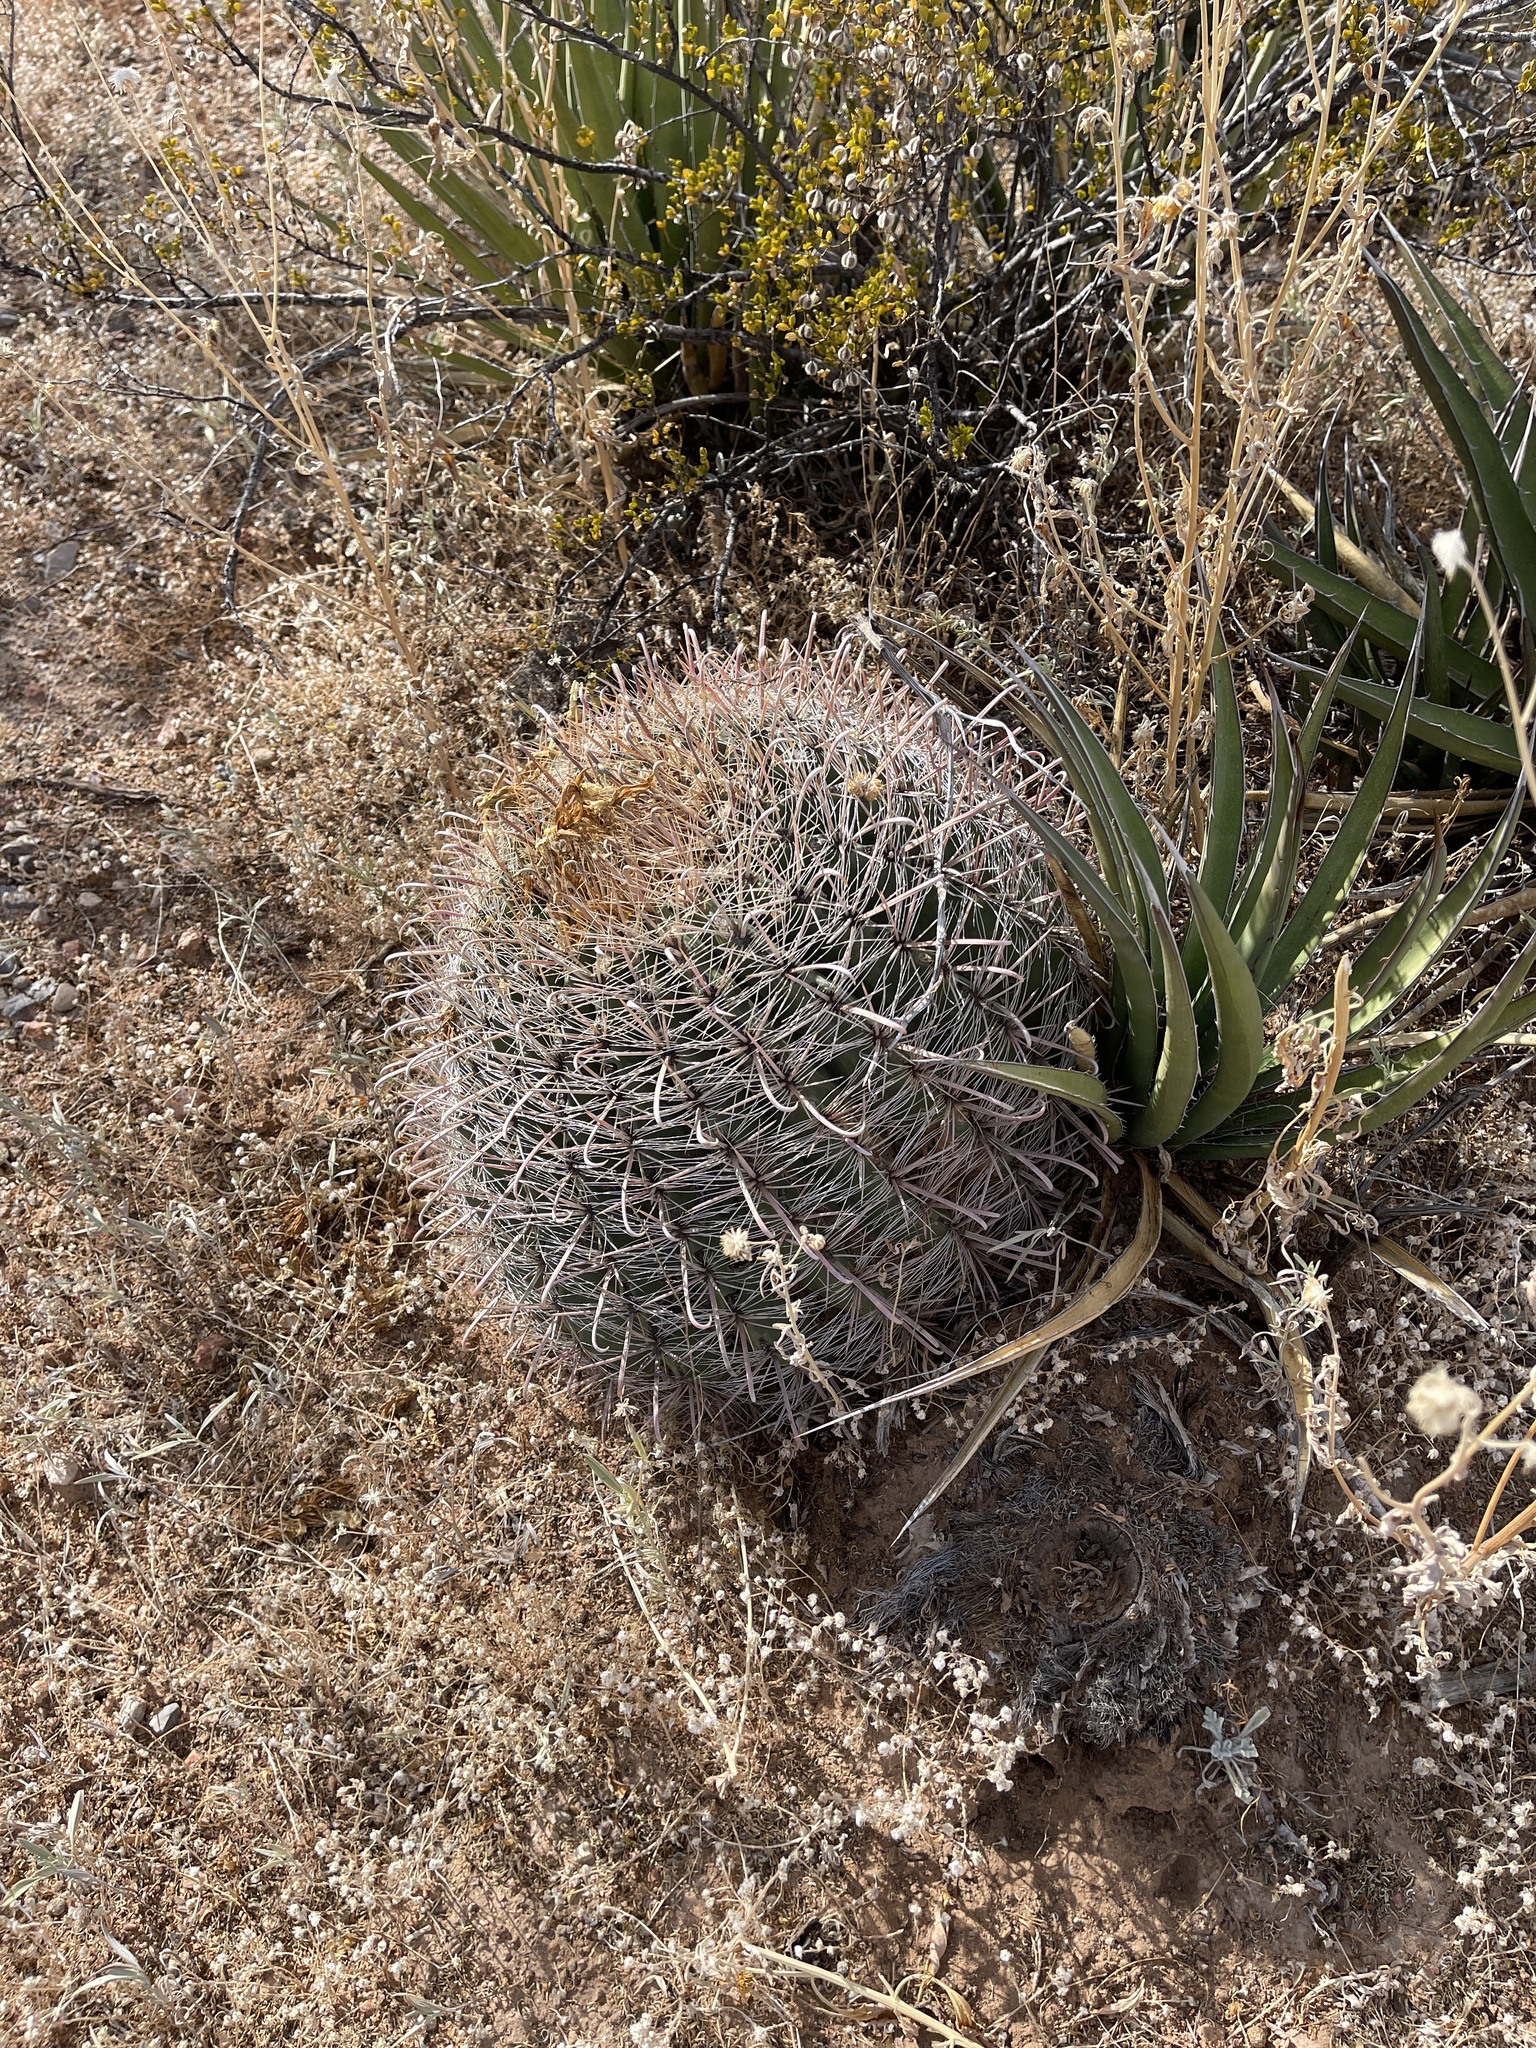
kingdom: Plantae
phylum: Tracheophyta
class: Magnoliopsida
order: Caryophyllales
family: Cactaceae
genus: Ferocactus
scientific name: Ferocactus wislizeni
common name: Candy barrel cactus
